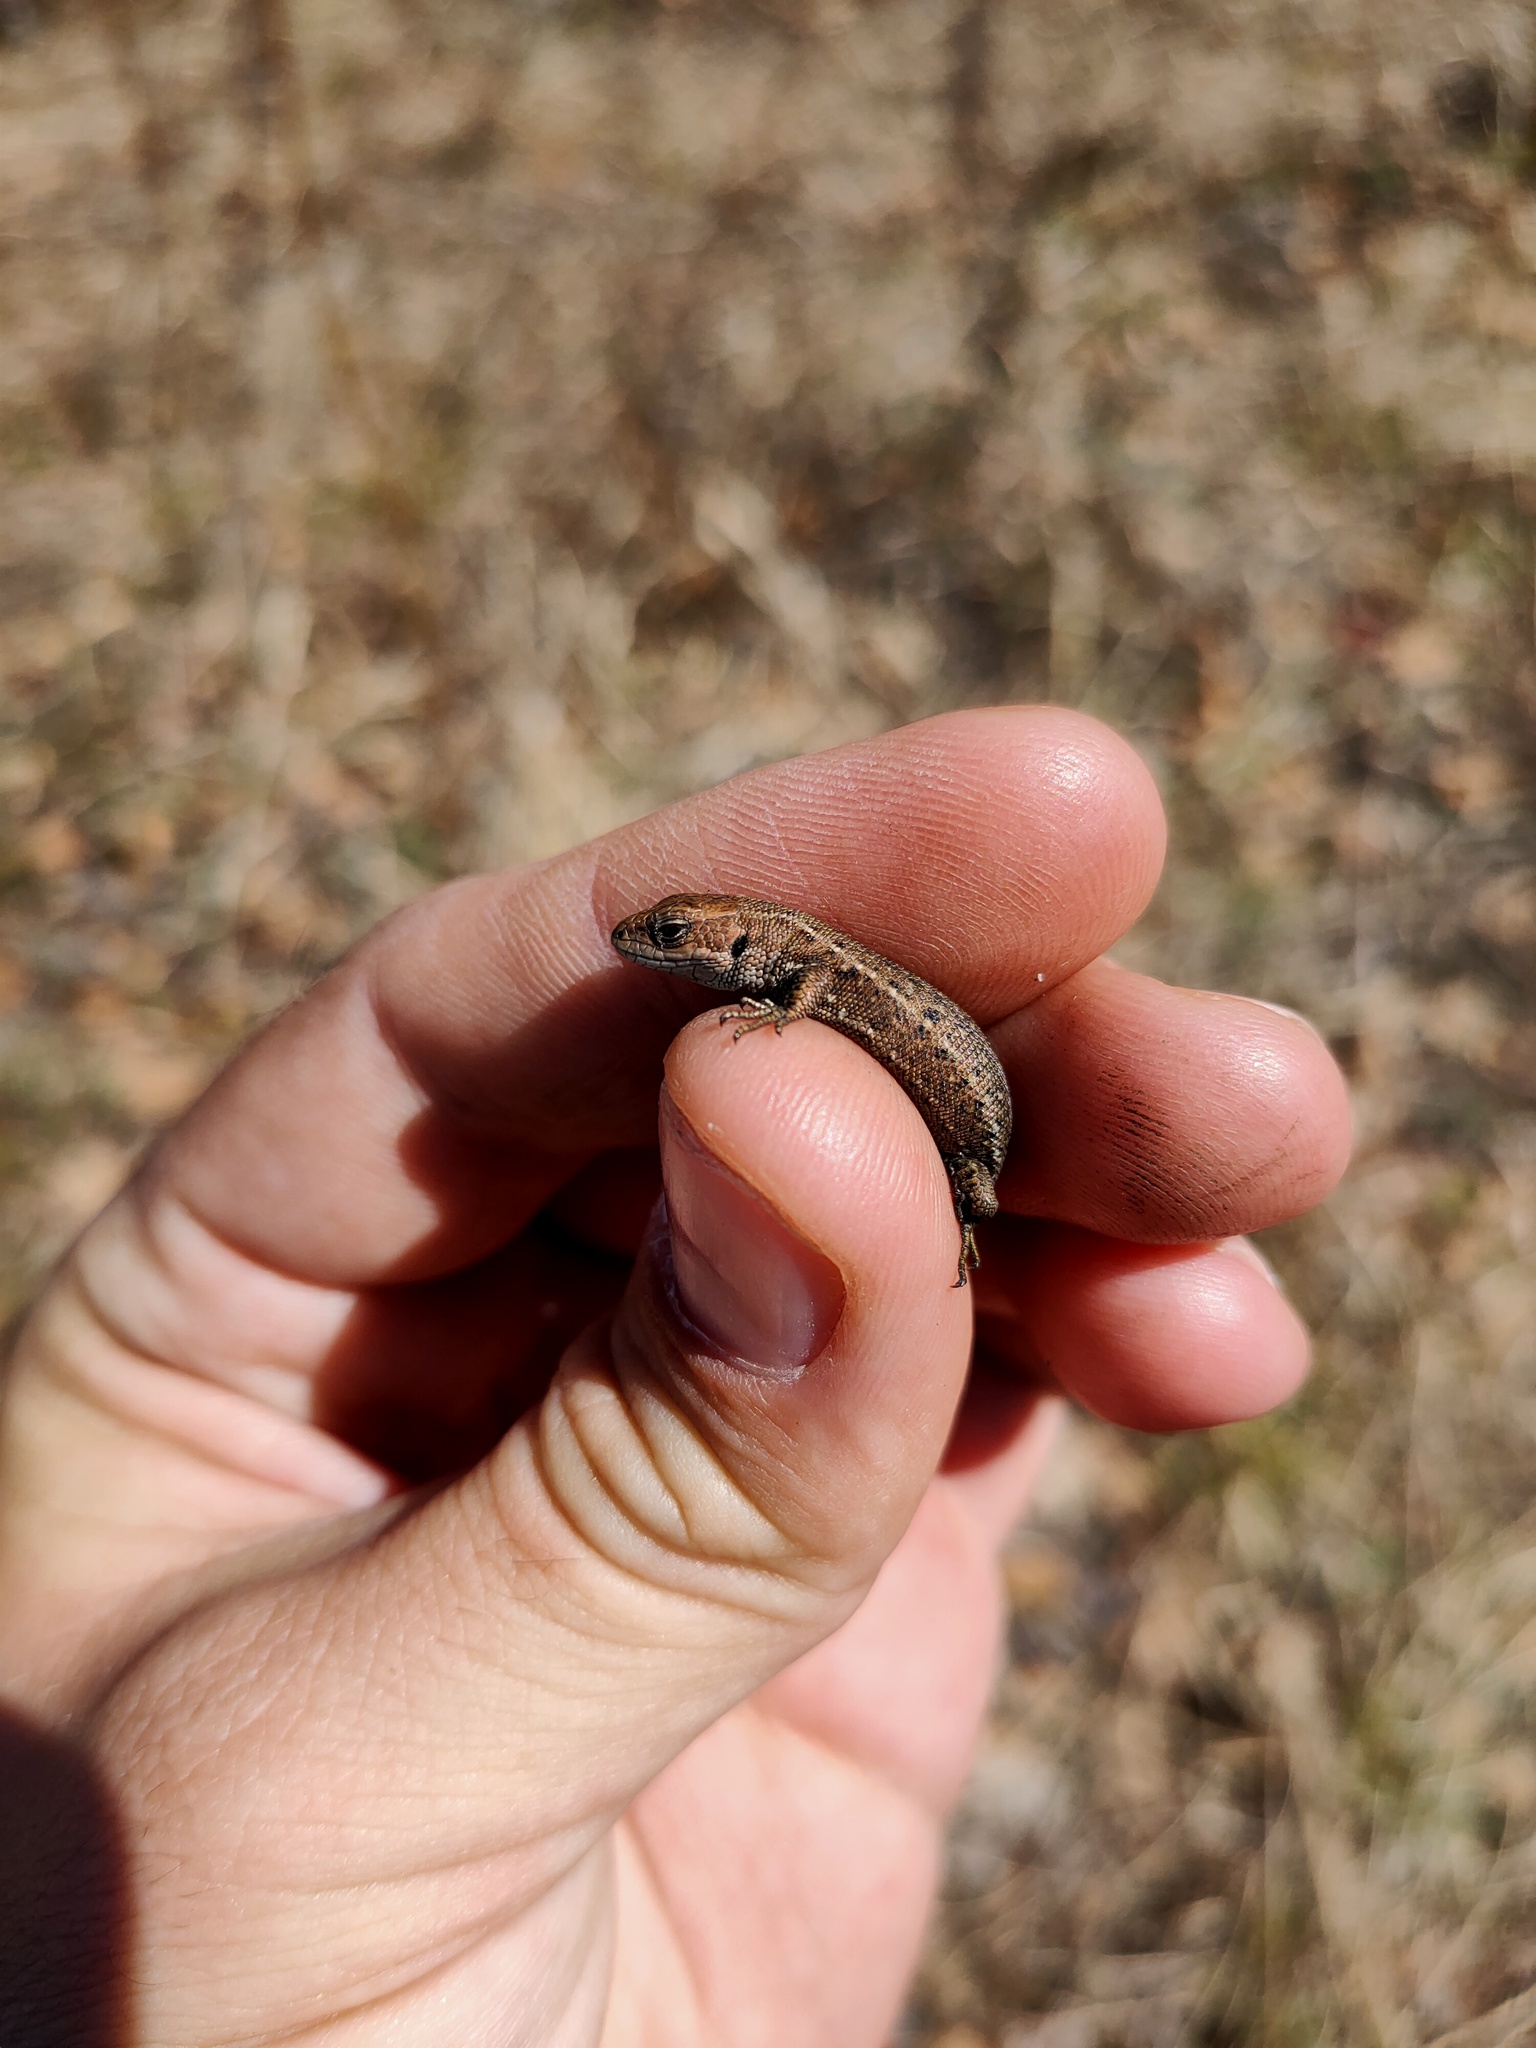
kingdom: Animalia
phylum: Chordata
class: Squamata
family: Lacertidae
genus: Zootoca
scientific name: Zootoca vivipara
